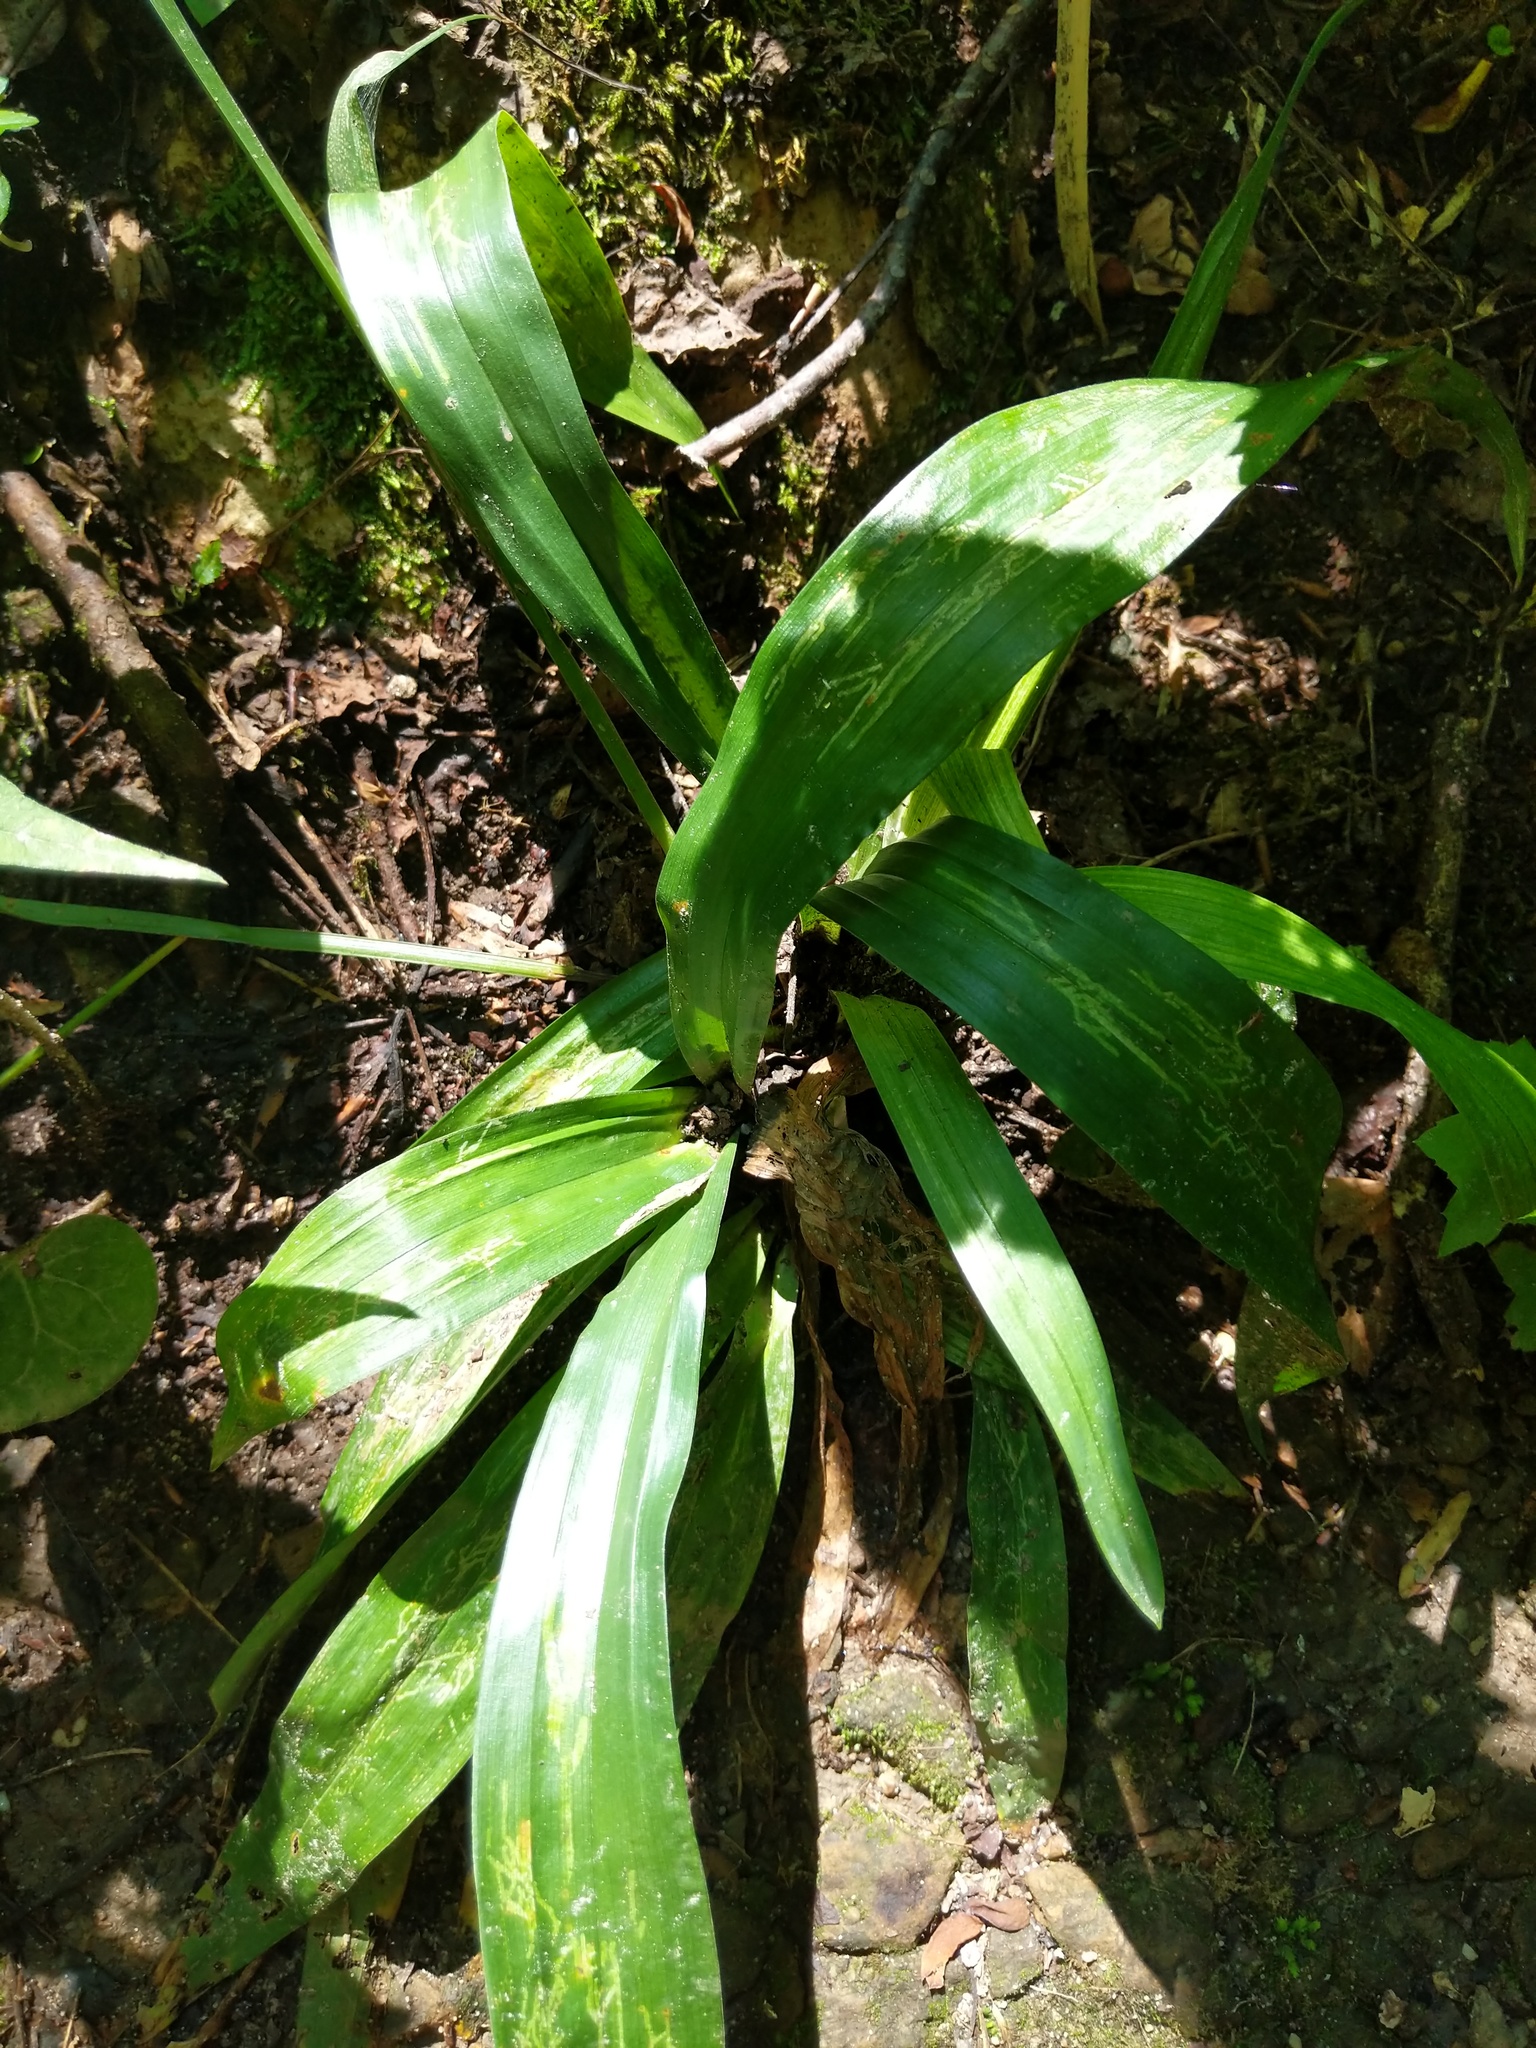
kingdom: Plantae
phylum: Tracheophyta
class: Liliopsida
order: Poales
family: Cyperaceae
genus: Carex
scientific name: Carex albursina
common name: Blunt-scale wood sedge
